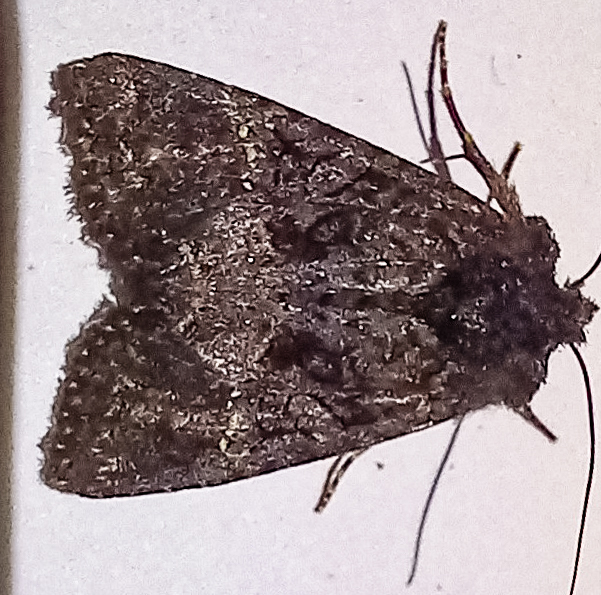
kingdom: Animalia
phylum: Arthropoda
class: Insecta
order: Lepidoptera
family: Noctuidae
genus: Meterana
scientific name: Meterana ochthistis
